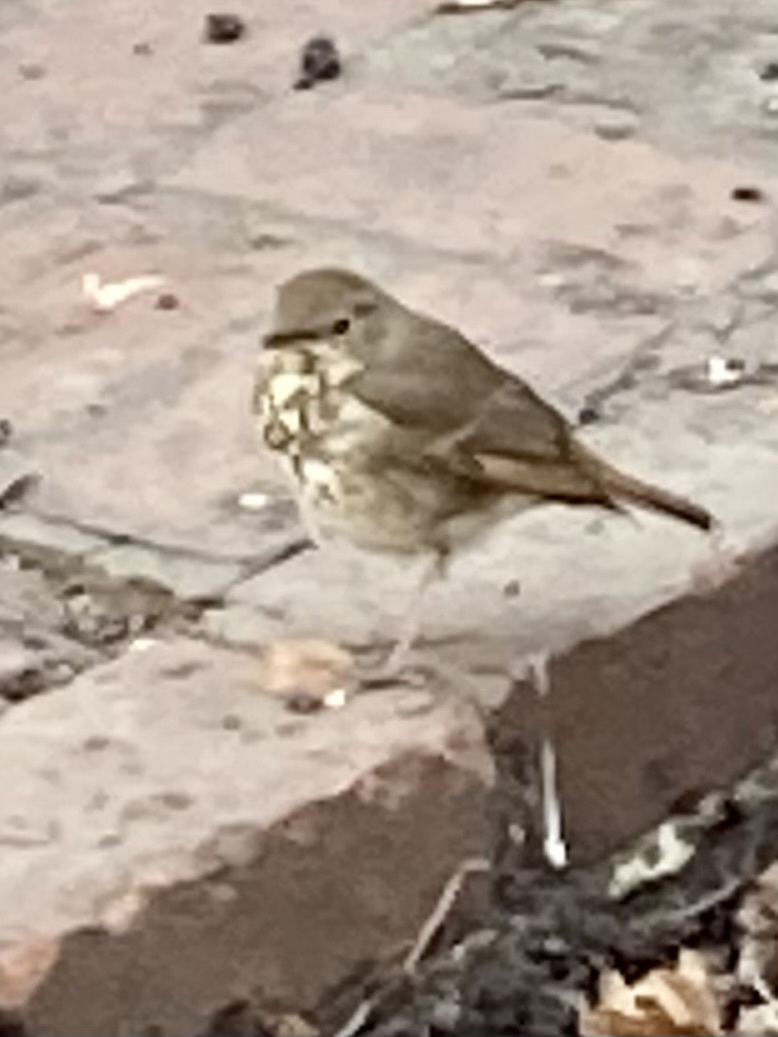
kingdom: Animalia
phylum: Chordata
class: Aves
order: Passeriformes
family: Turdidae
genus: Catharus
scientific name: Catharus guttatus
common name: Hermit thrush
